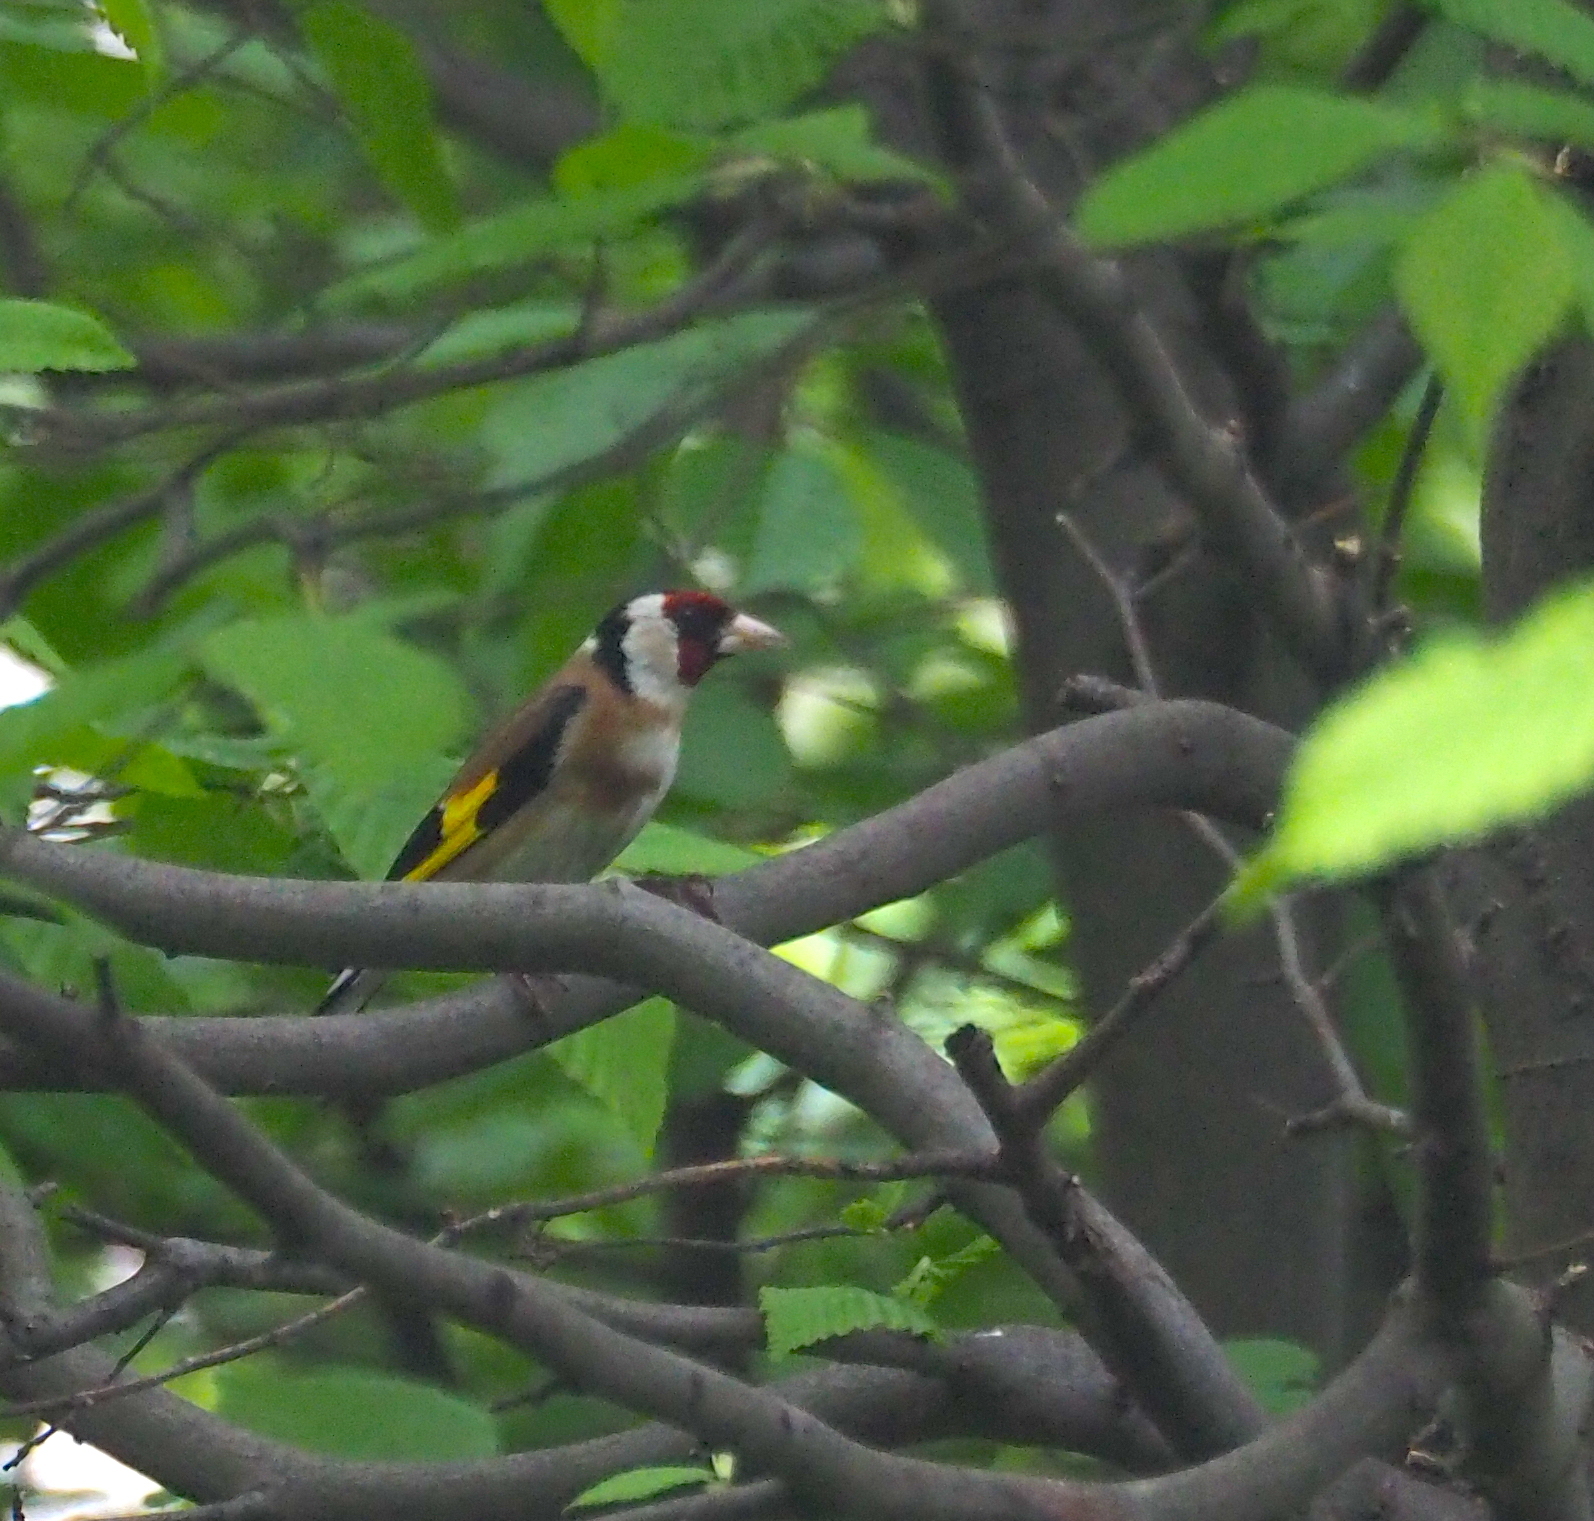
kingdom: Animalia
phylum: Chordata
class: Aves
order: Passeriformes
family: Fringillidae
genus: Carduelis
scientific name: Carduelis carduelis
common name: European goldfinch
